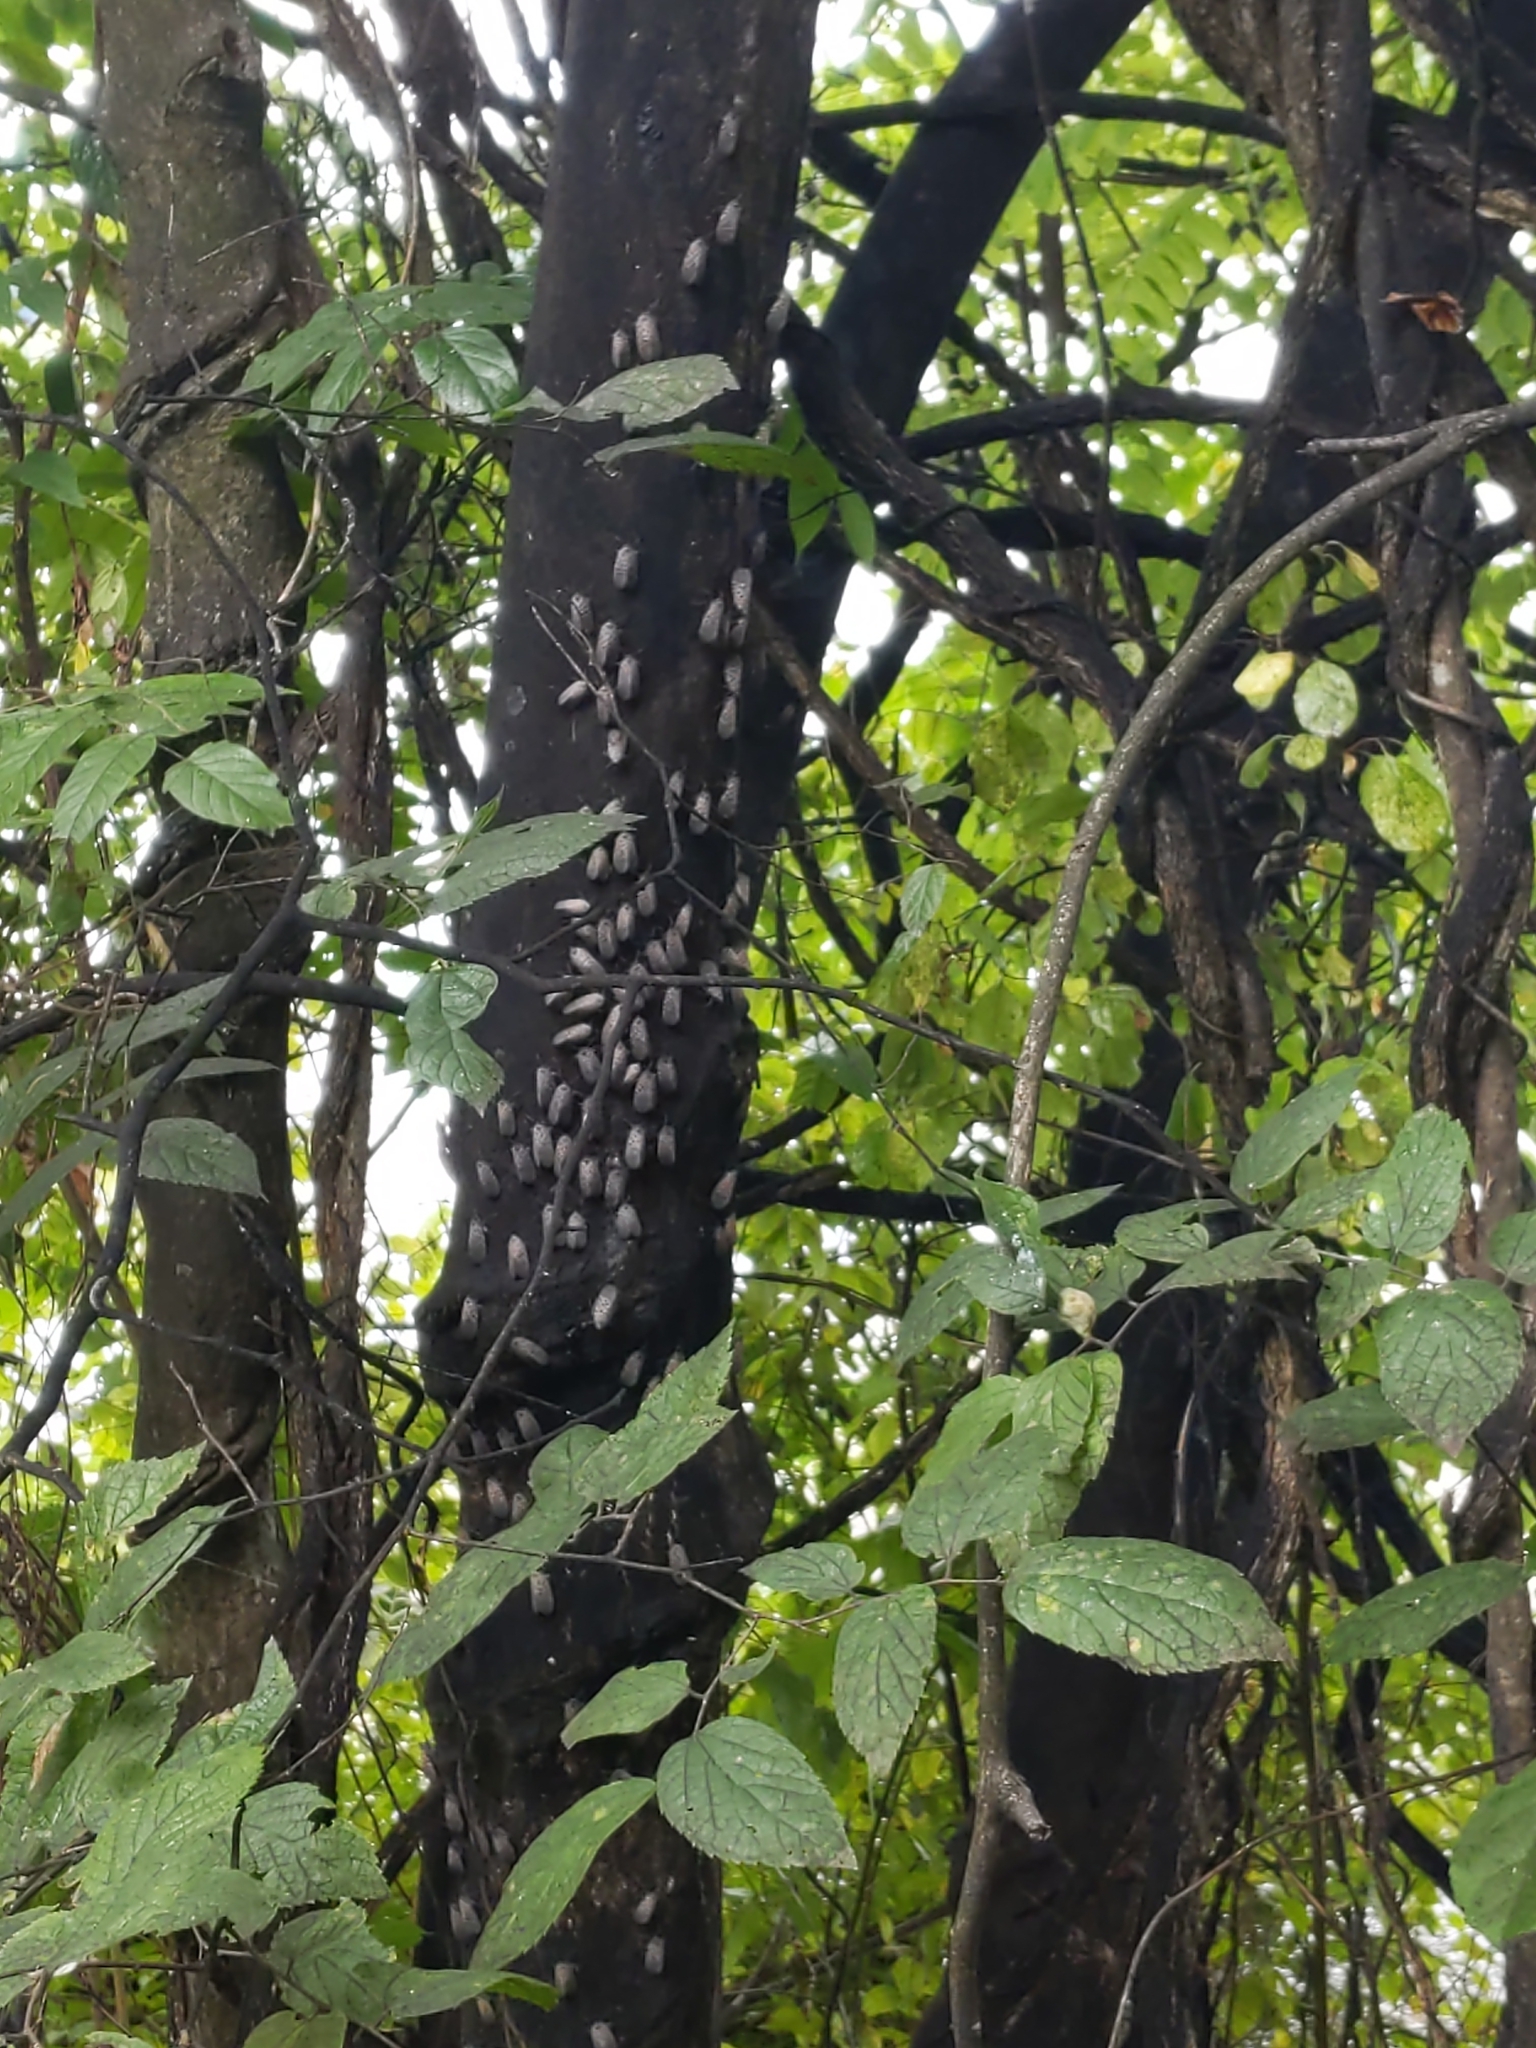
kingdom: Animalia
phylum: Arthropoda
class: Insecta
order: Hemiptera
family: Fulgoridae
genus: Lycorma
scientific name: Lycorma delicatula
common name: Spotted lanternfly
